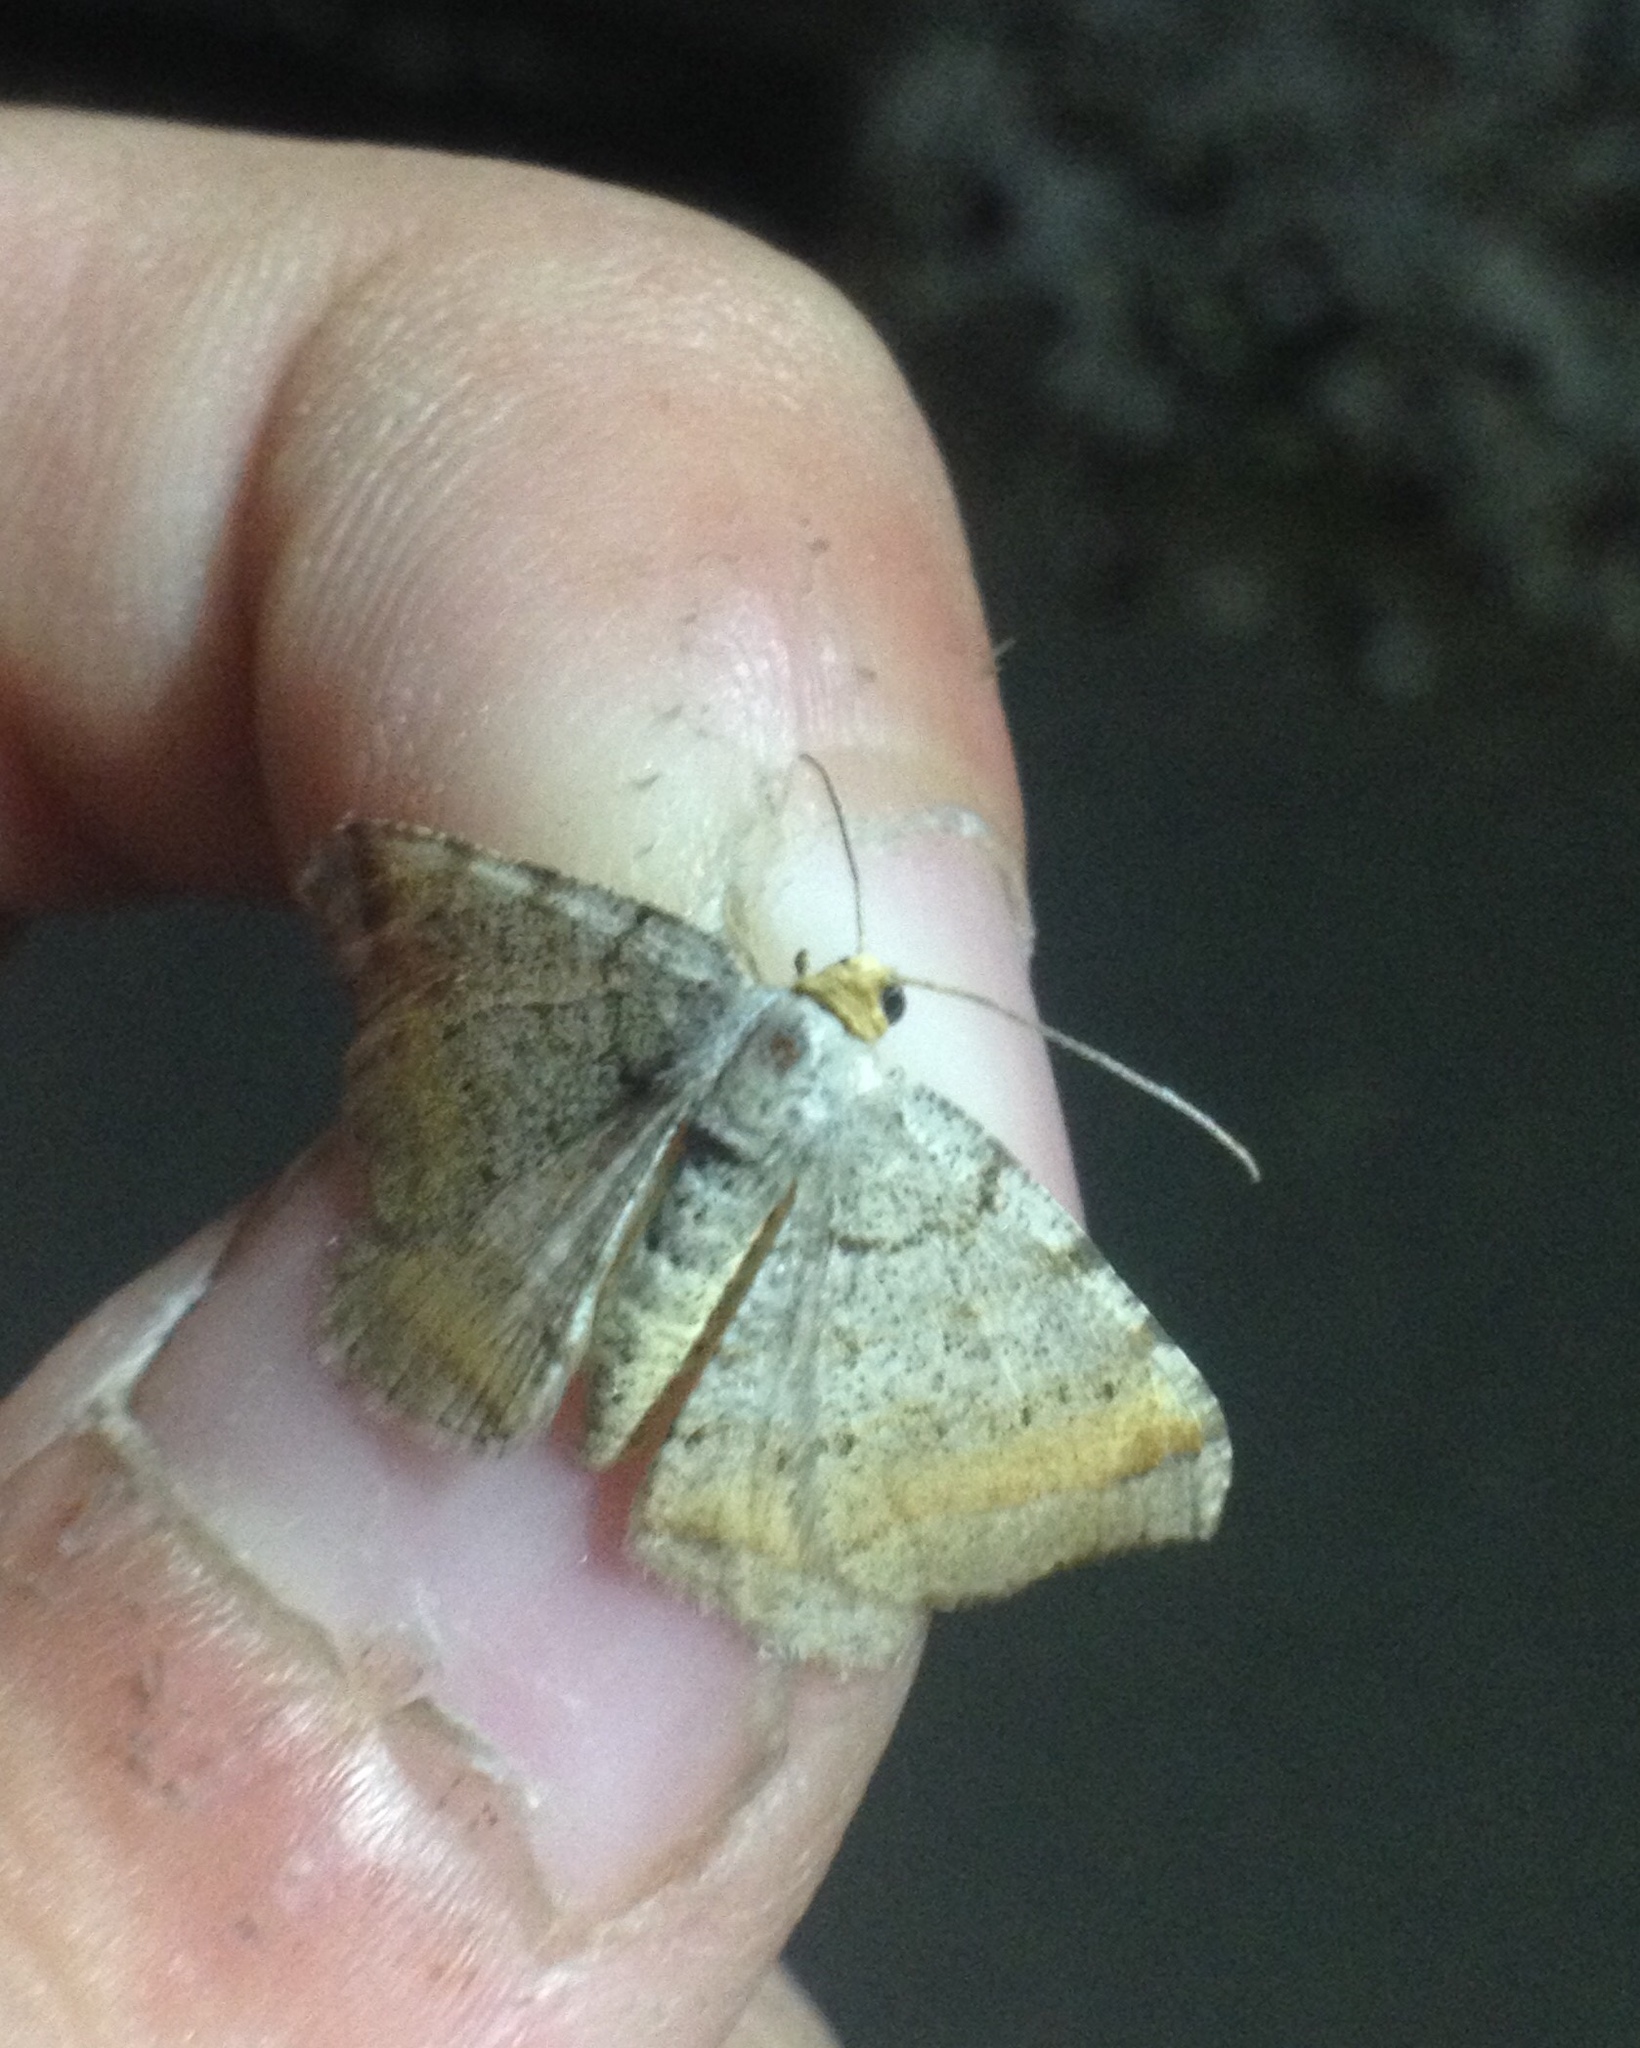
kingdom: Animalia
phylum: Arthropoda
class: Insecta
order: Lepidoptera
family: Geometridae
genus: Macaria
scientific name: Macaria liturata
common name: Tawny-barred angle
